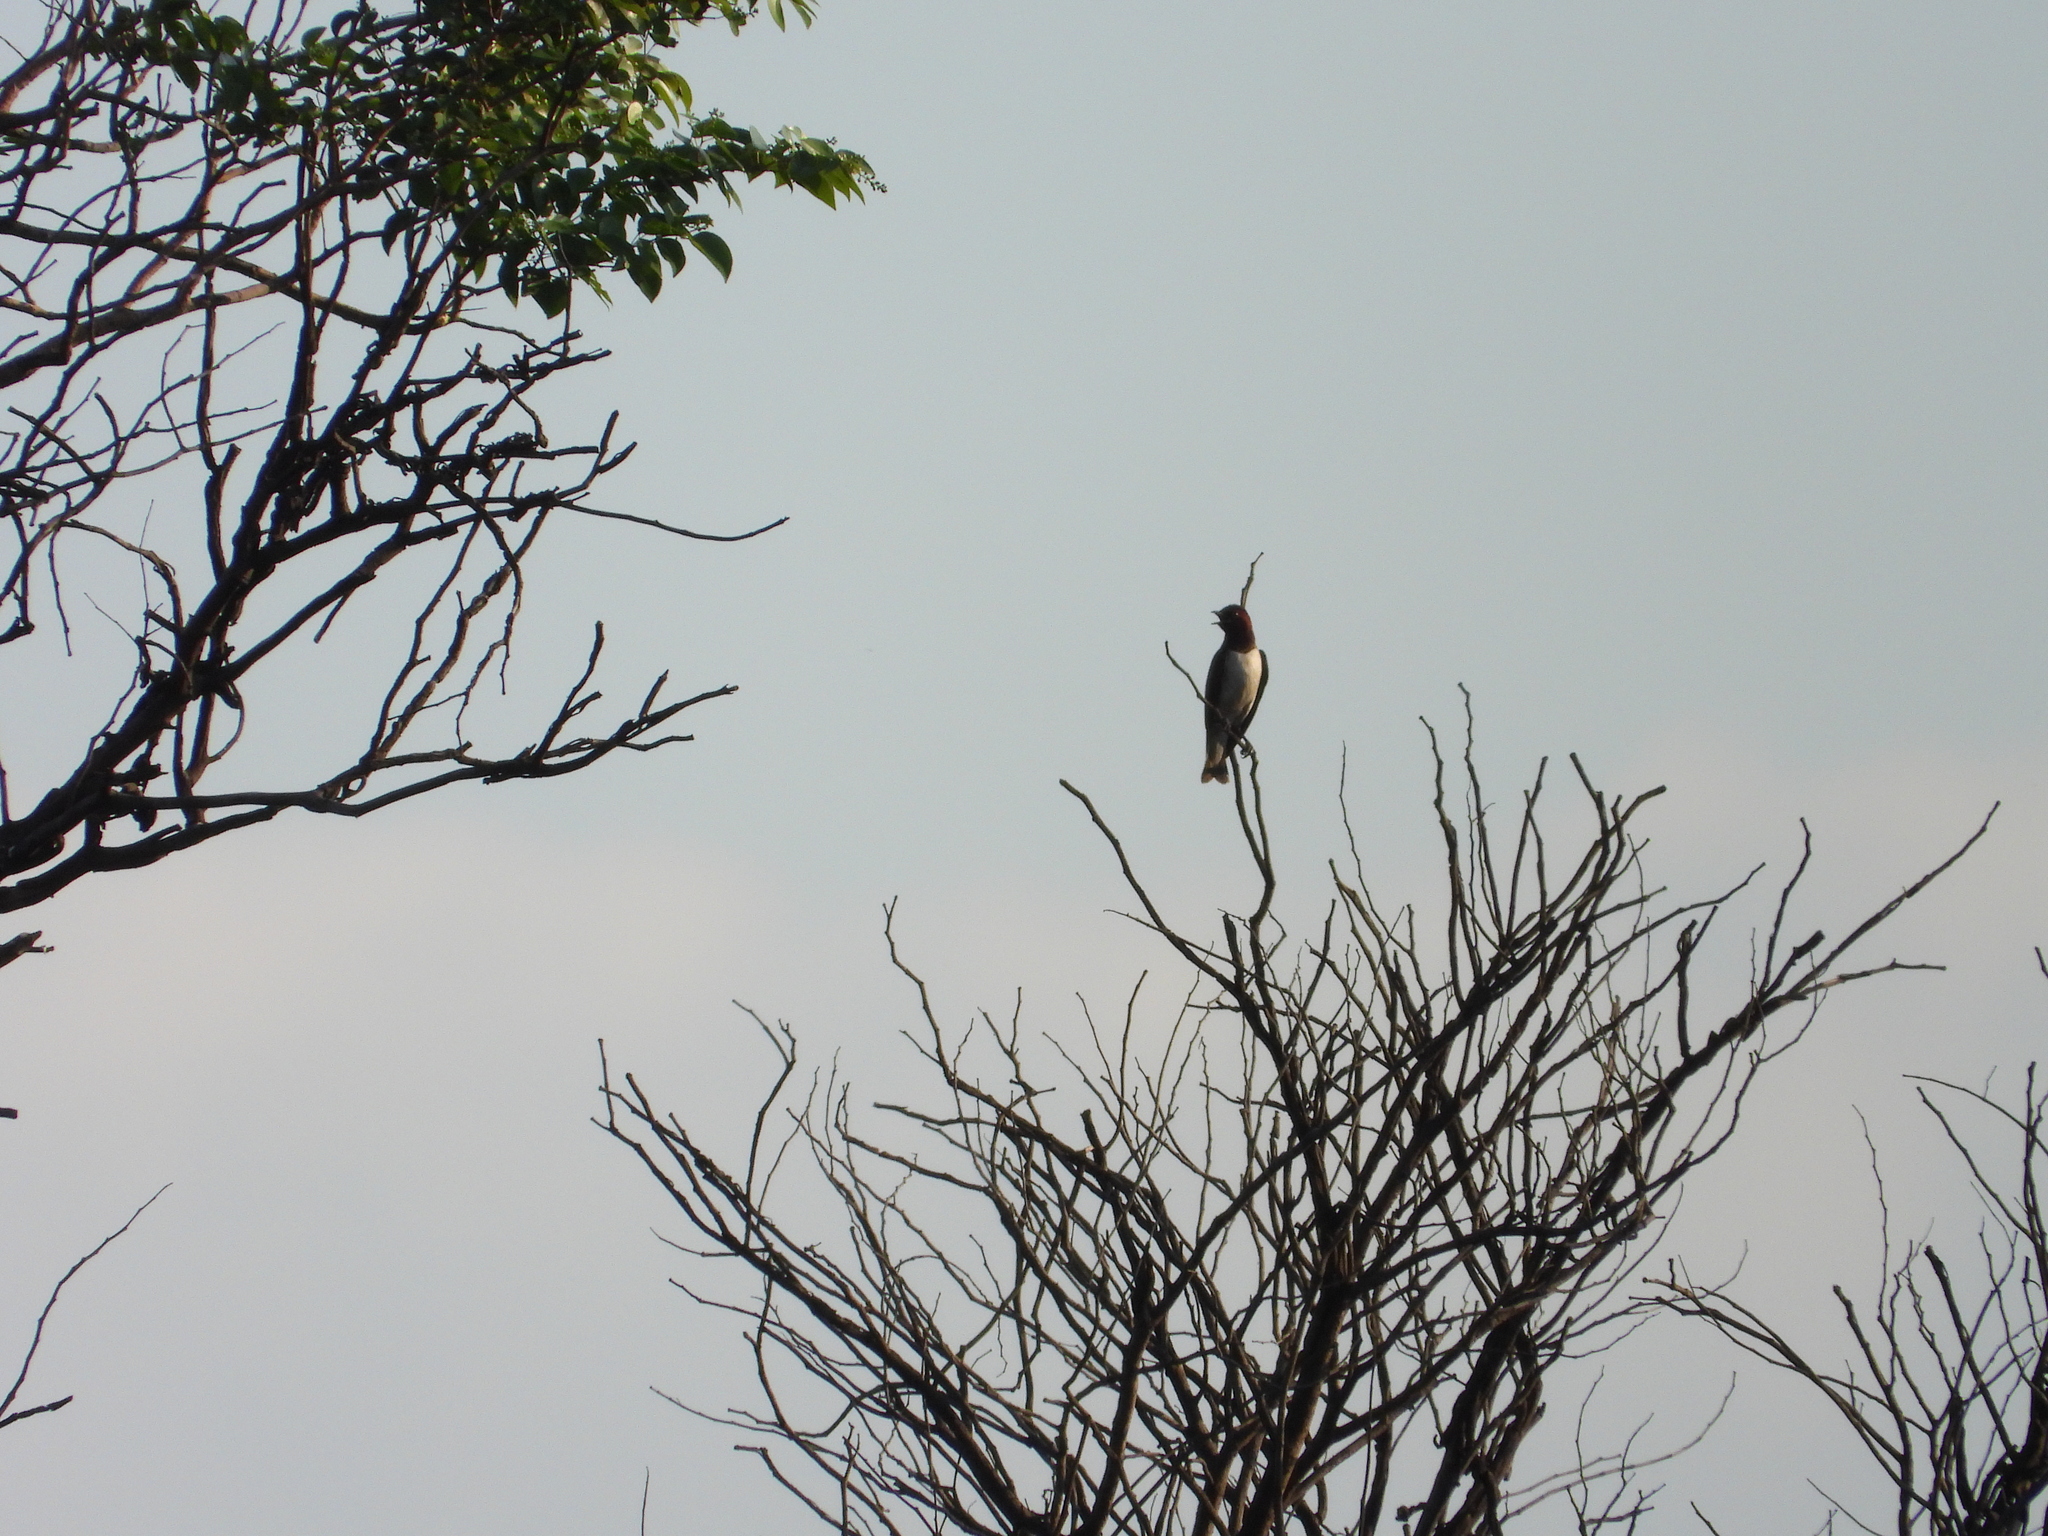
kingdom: Animalia
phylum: Chordata
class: Aves
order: Passeriformes
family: Sturnidae
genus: Cinnyricinclus
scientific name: Cinnyricinclus leucogaster
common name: Violet-backed starling
